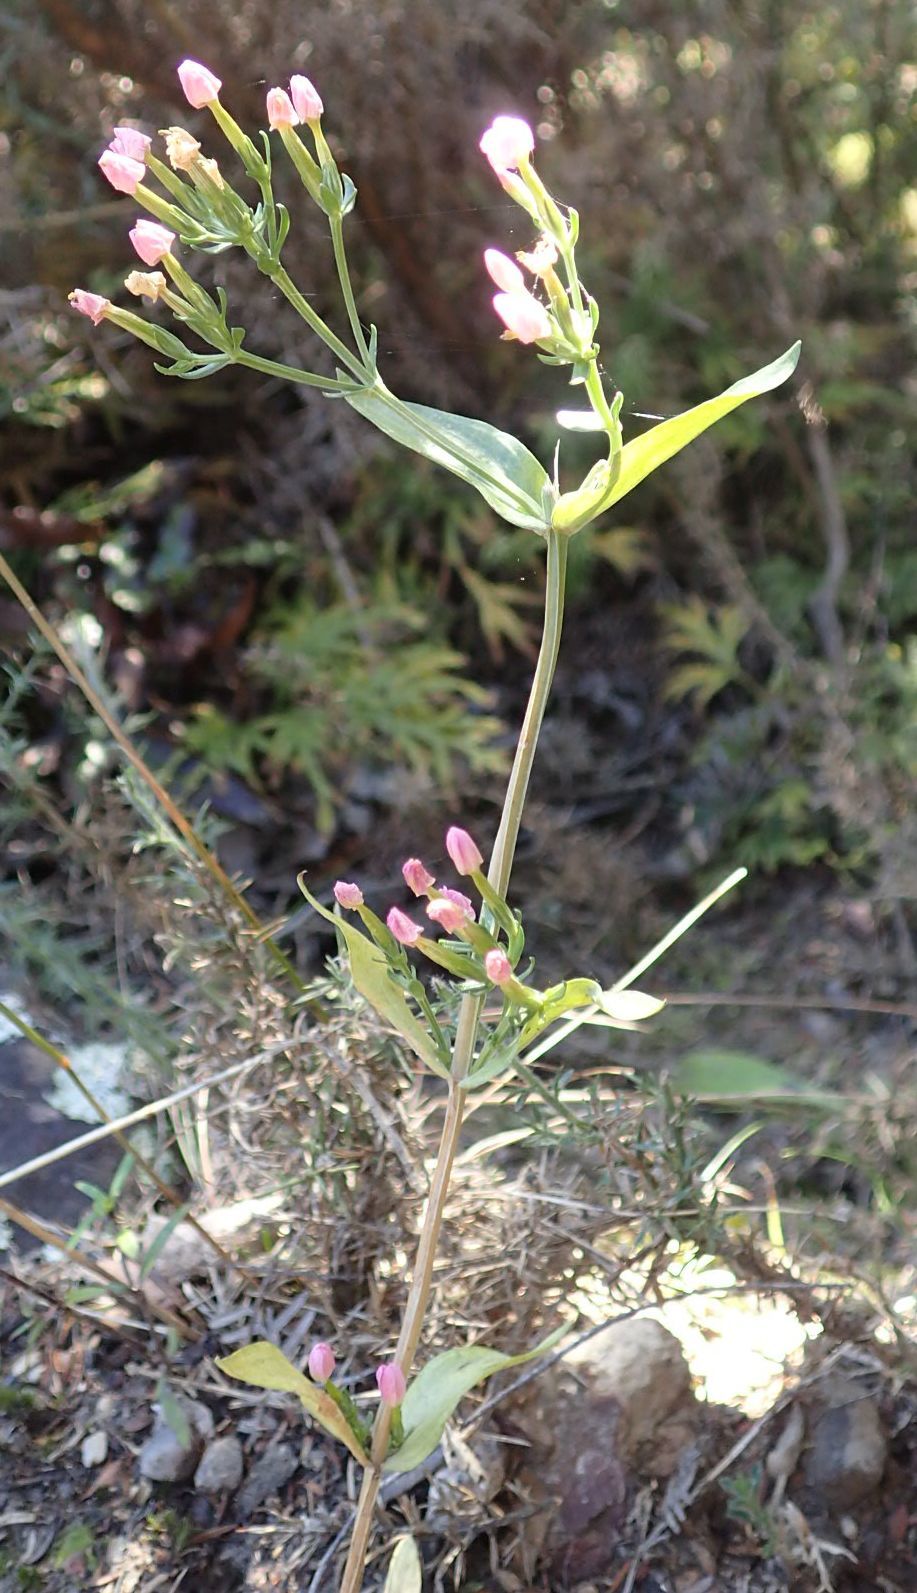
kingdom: Plantae
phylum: Tracheophyta
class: Magnoliopsida
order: Gentianales
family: Gentianaceae
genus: Centaurium
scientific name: Centaurium erythraea
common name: Common centaury
